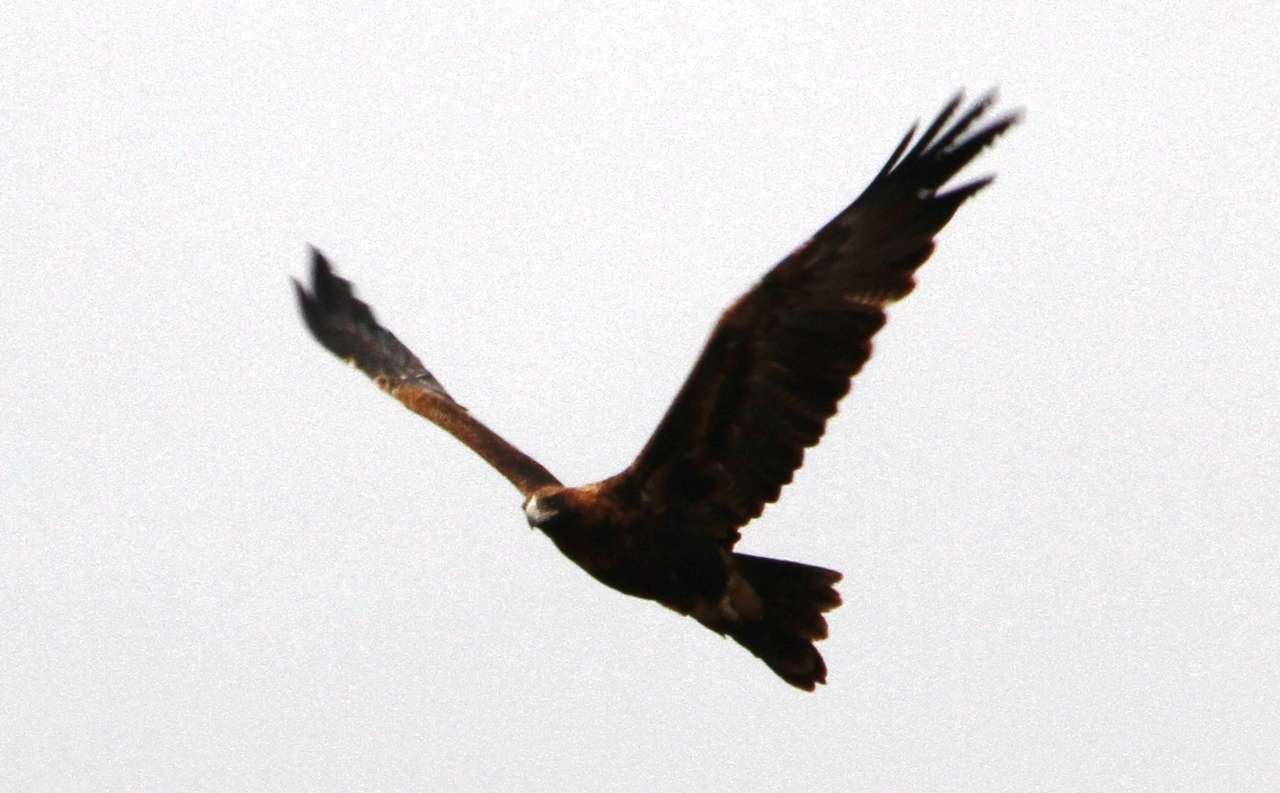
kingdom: Animalia
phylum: Chordata
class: Aves
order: Accipitriformes
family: Accipitridae
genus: Aquila
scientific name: Aquila audax
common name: Wedge-tailed eagle
